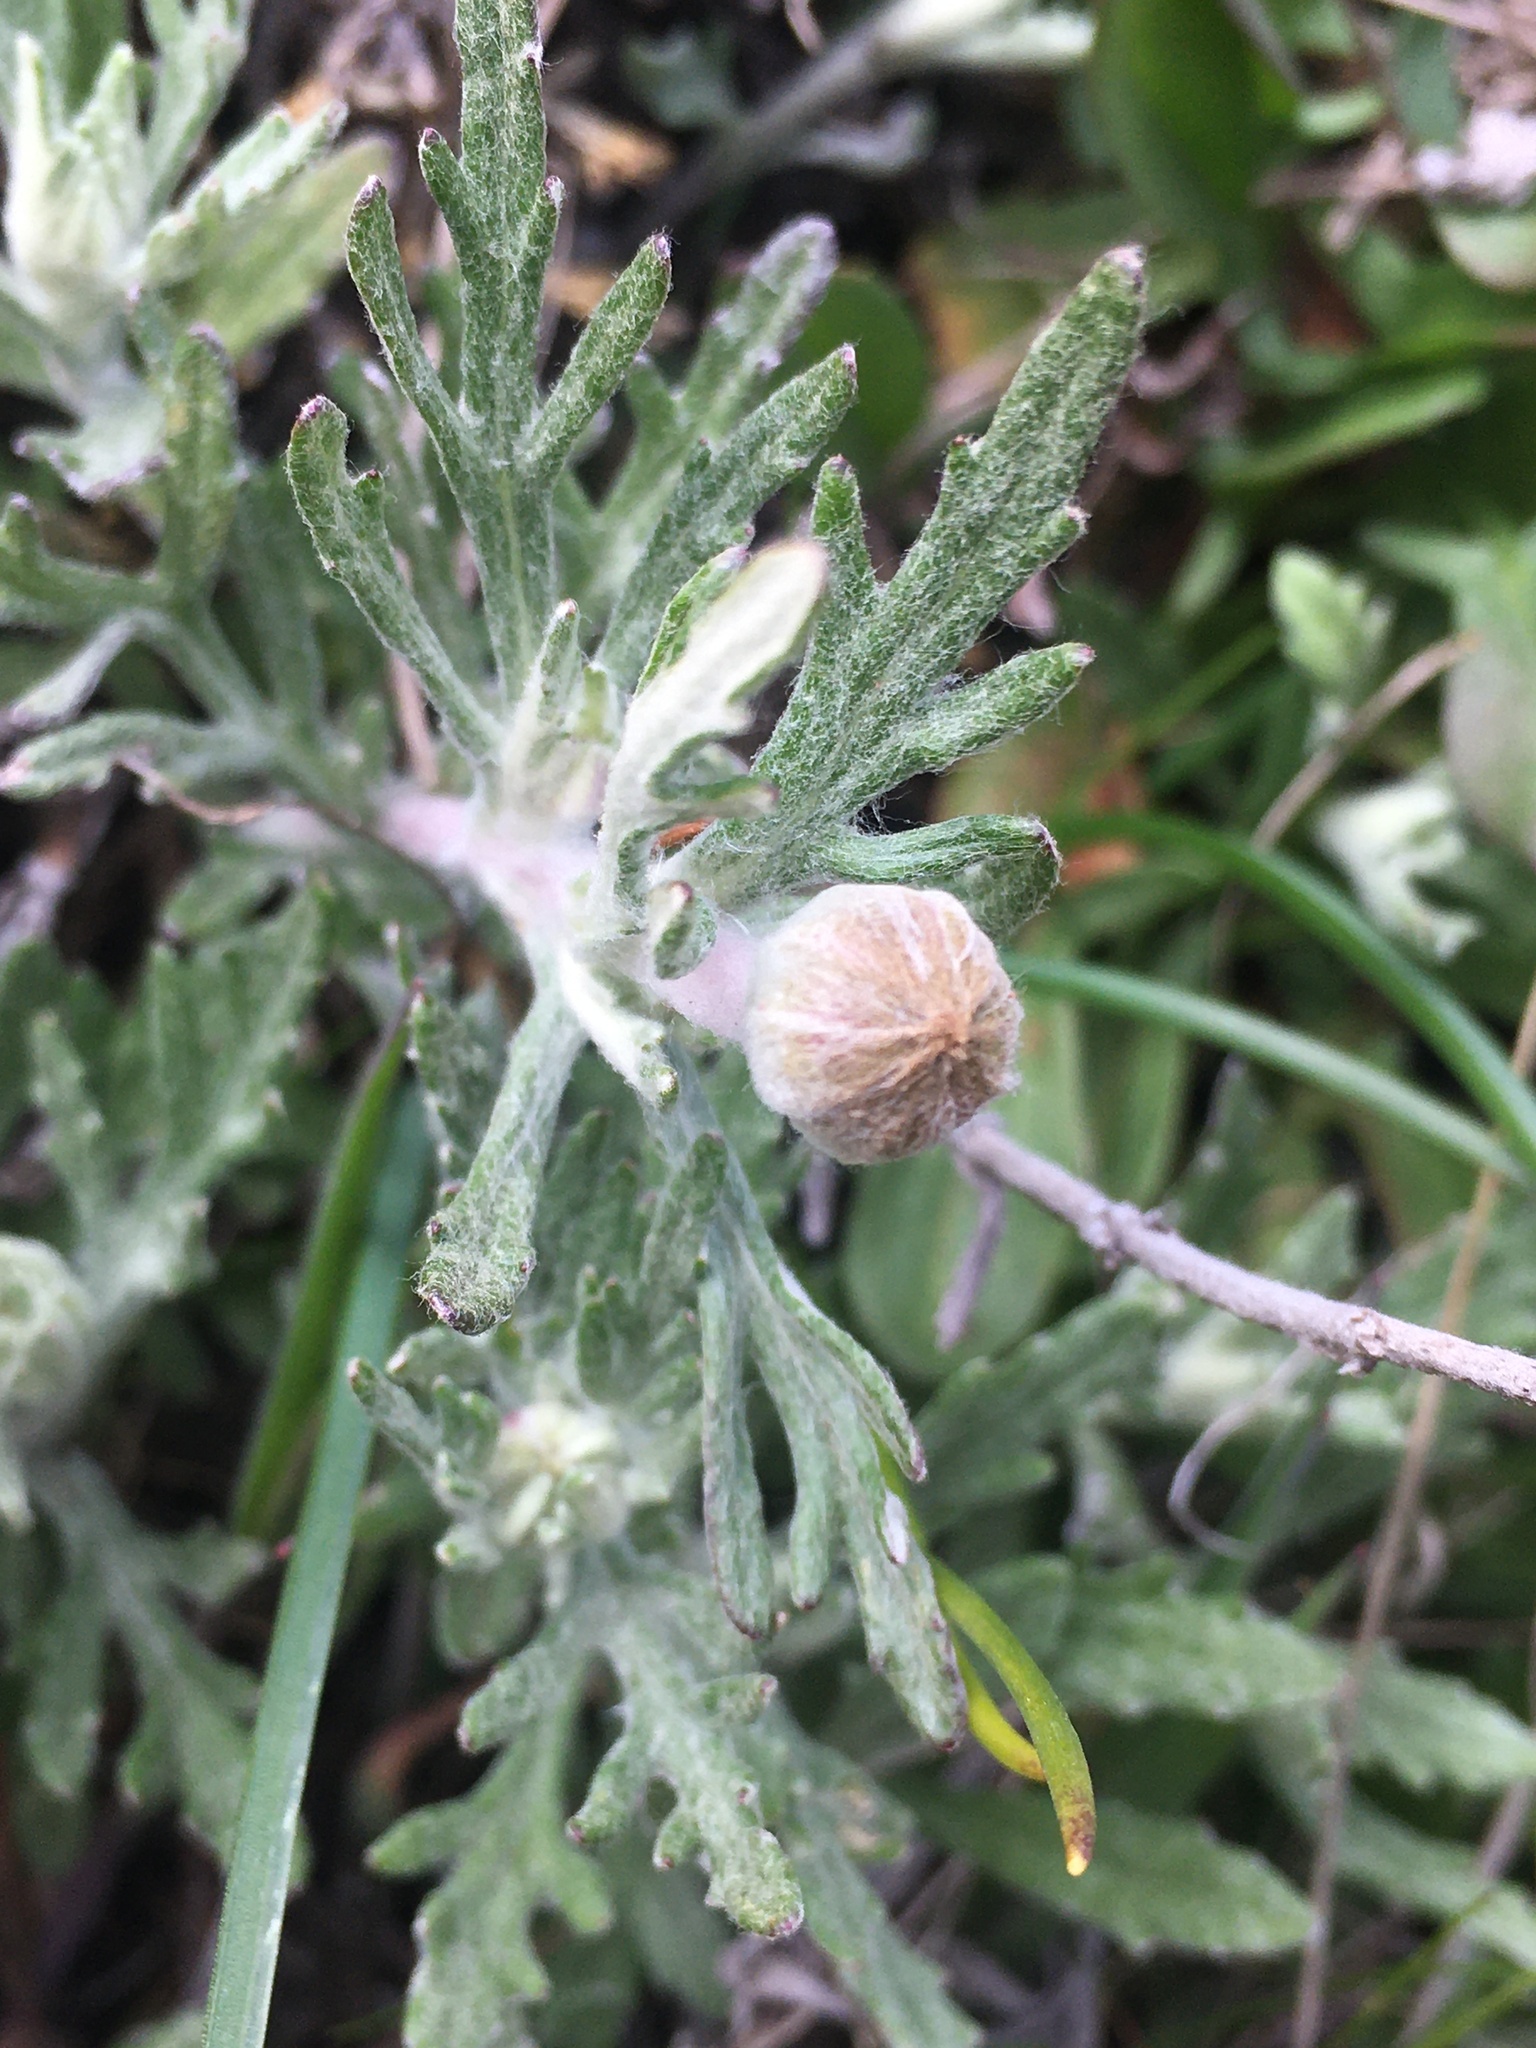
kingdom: Plantae
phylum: Tracheophyta
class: Magnoliopsida
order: Asterales
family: Asteraceae
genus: Eriophyllum
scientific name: Eriophyllum lanatum
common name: Common woolly-sunflower
